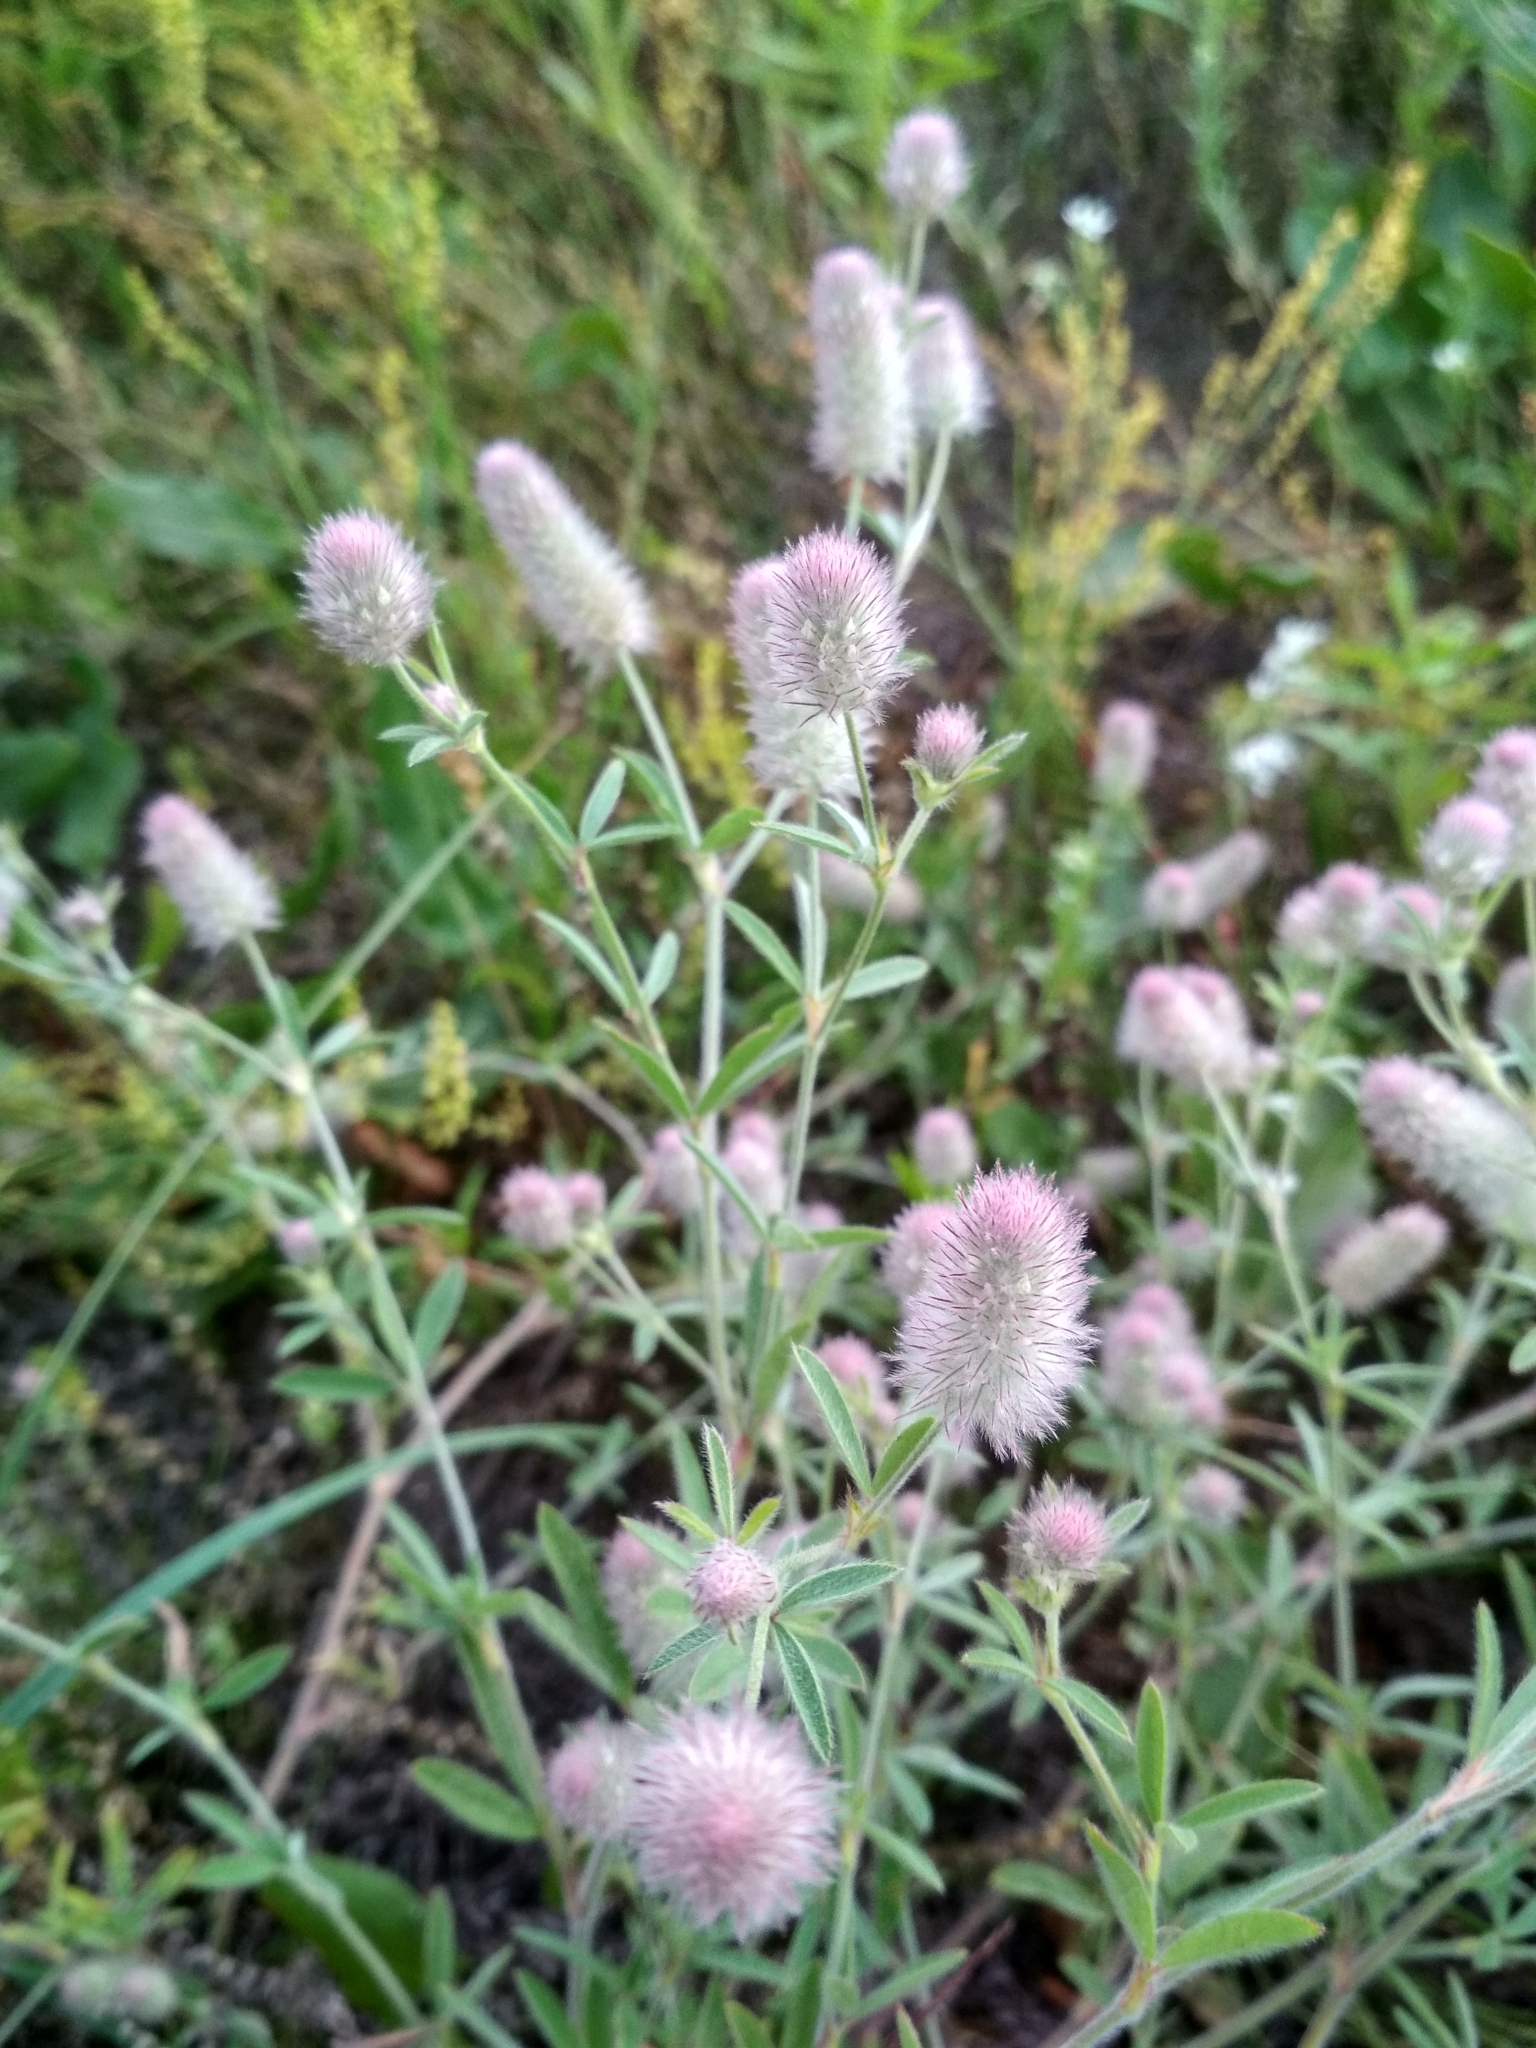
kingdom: Plantae
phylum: Tracheophyta
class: Magnoliopsida
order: Fabales
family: Fabaceae
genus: Trifolium
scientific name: Trifolium arvense
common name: Hare's-foot clover
